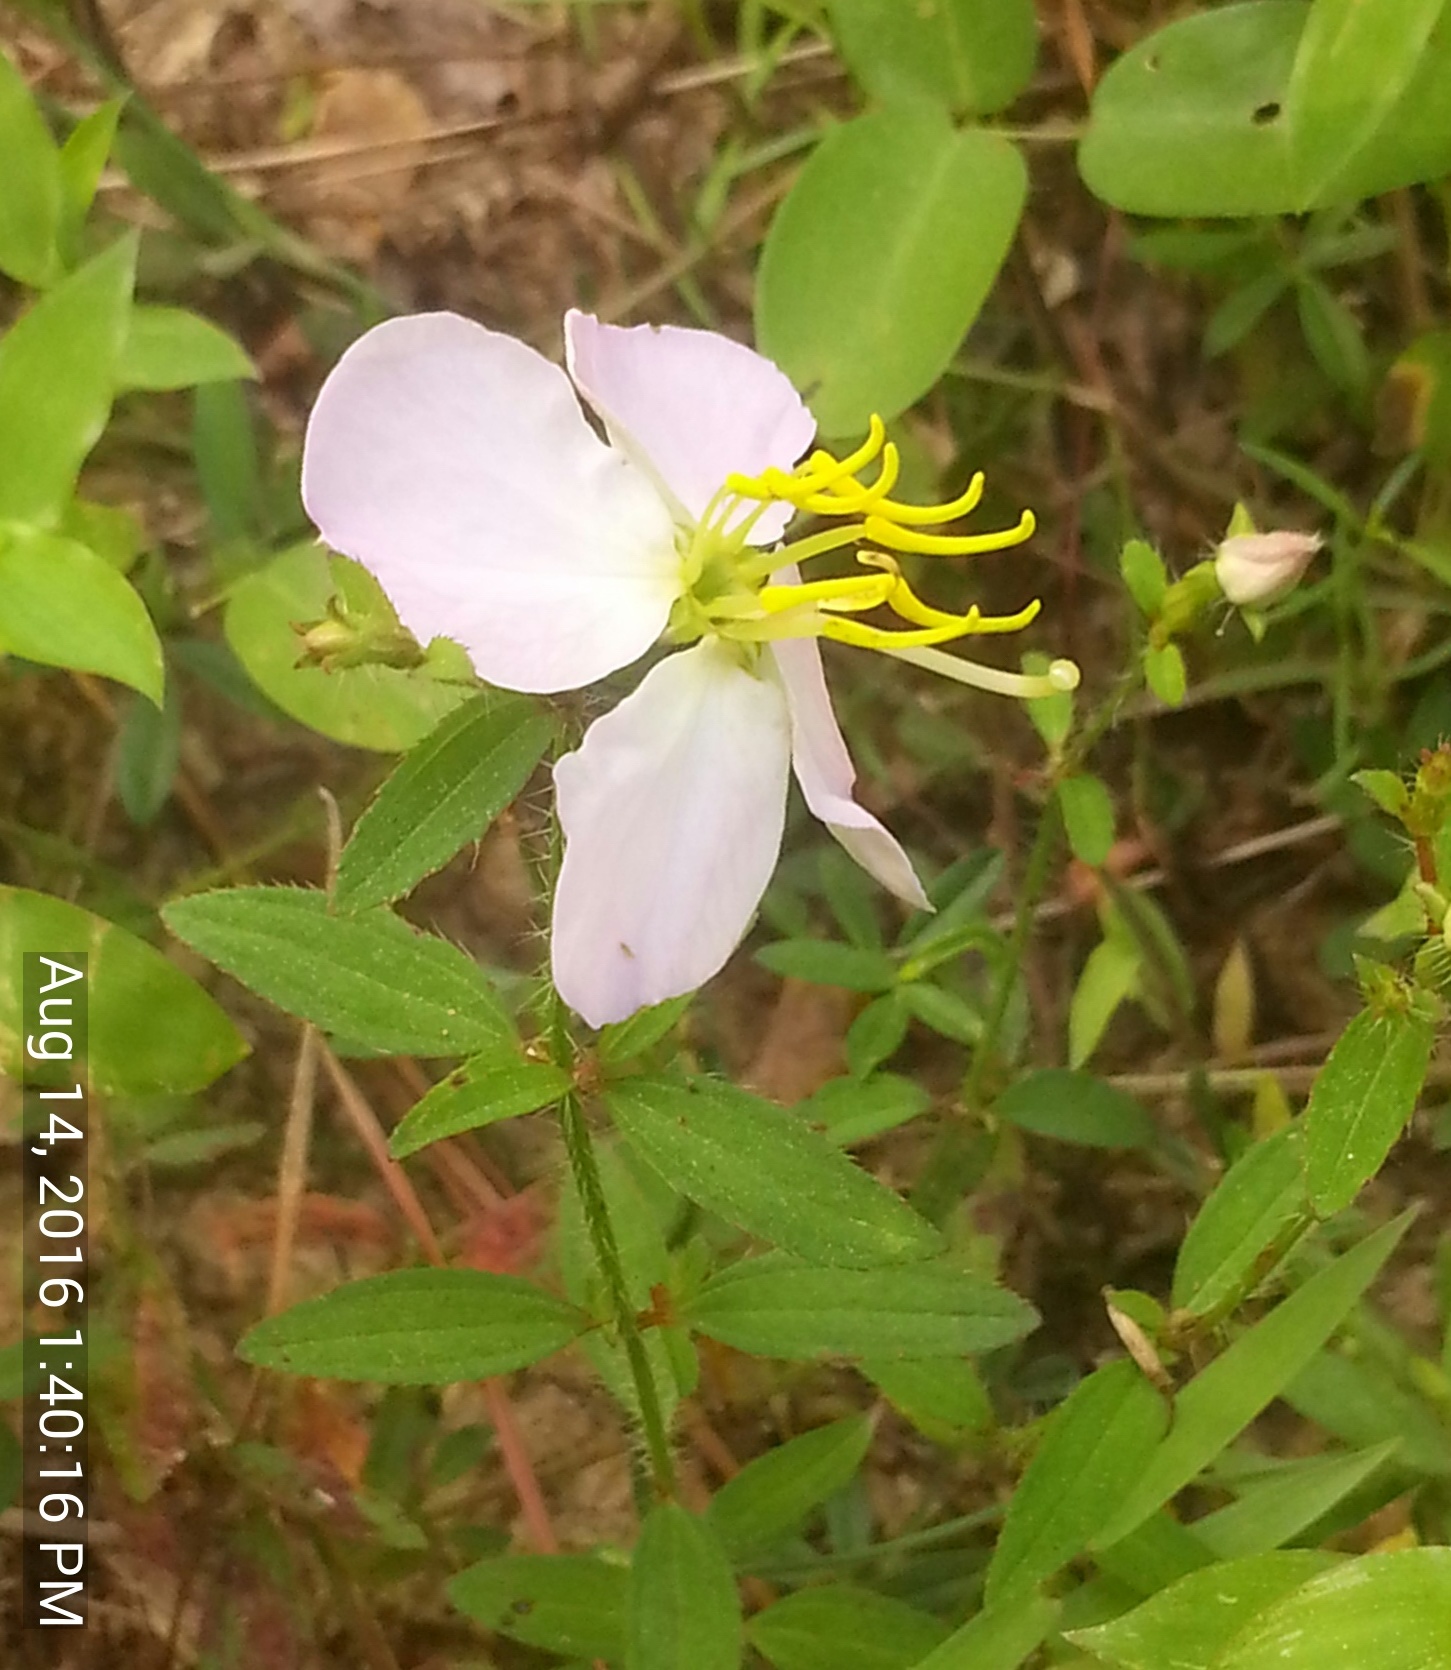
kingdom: Plantae
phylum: Tracheophyta
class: Magnoliopsida
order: Myrtales
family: Melastomataceae
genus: Rhexia
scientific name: Rhexia virginica
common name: Common meadow beauty
